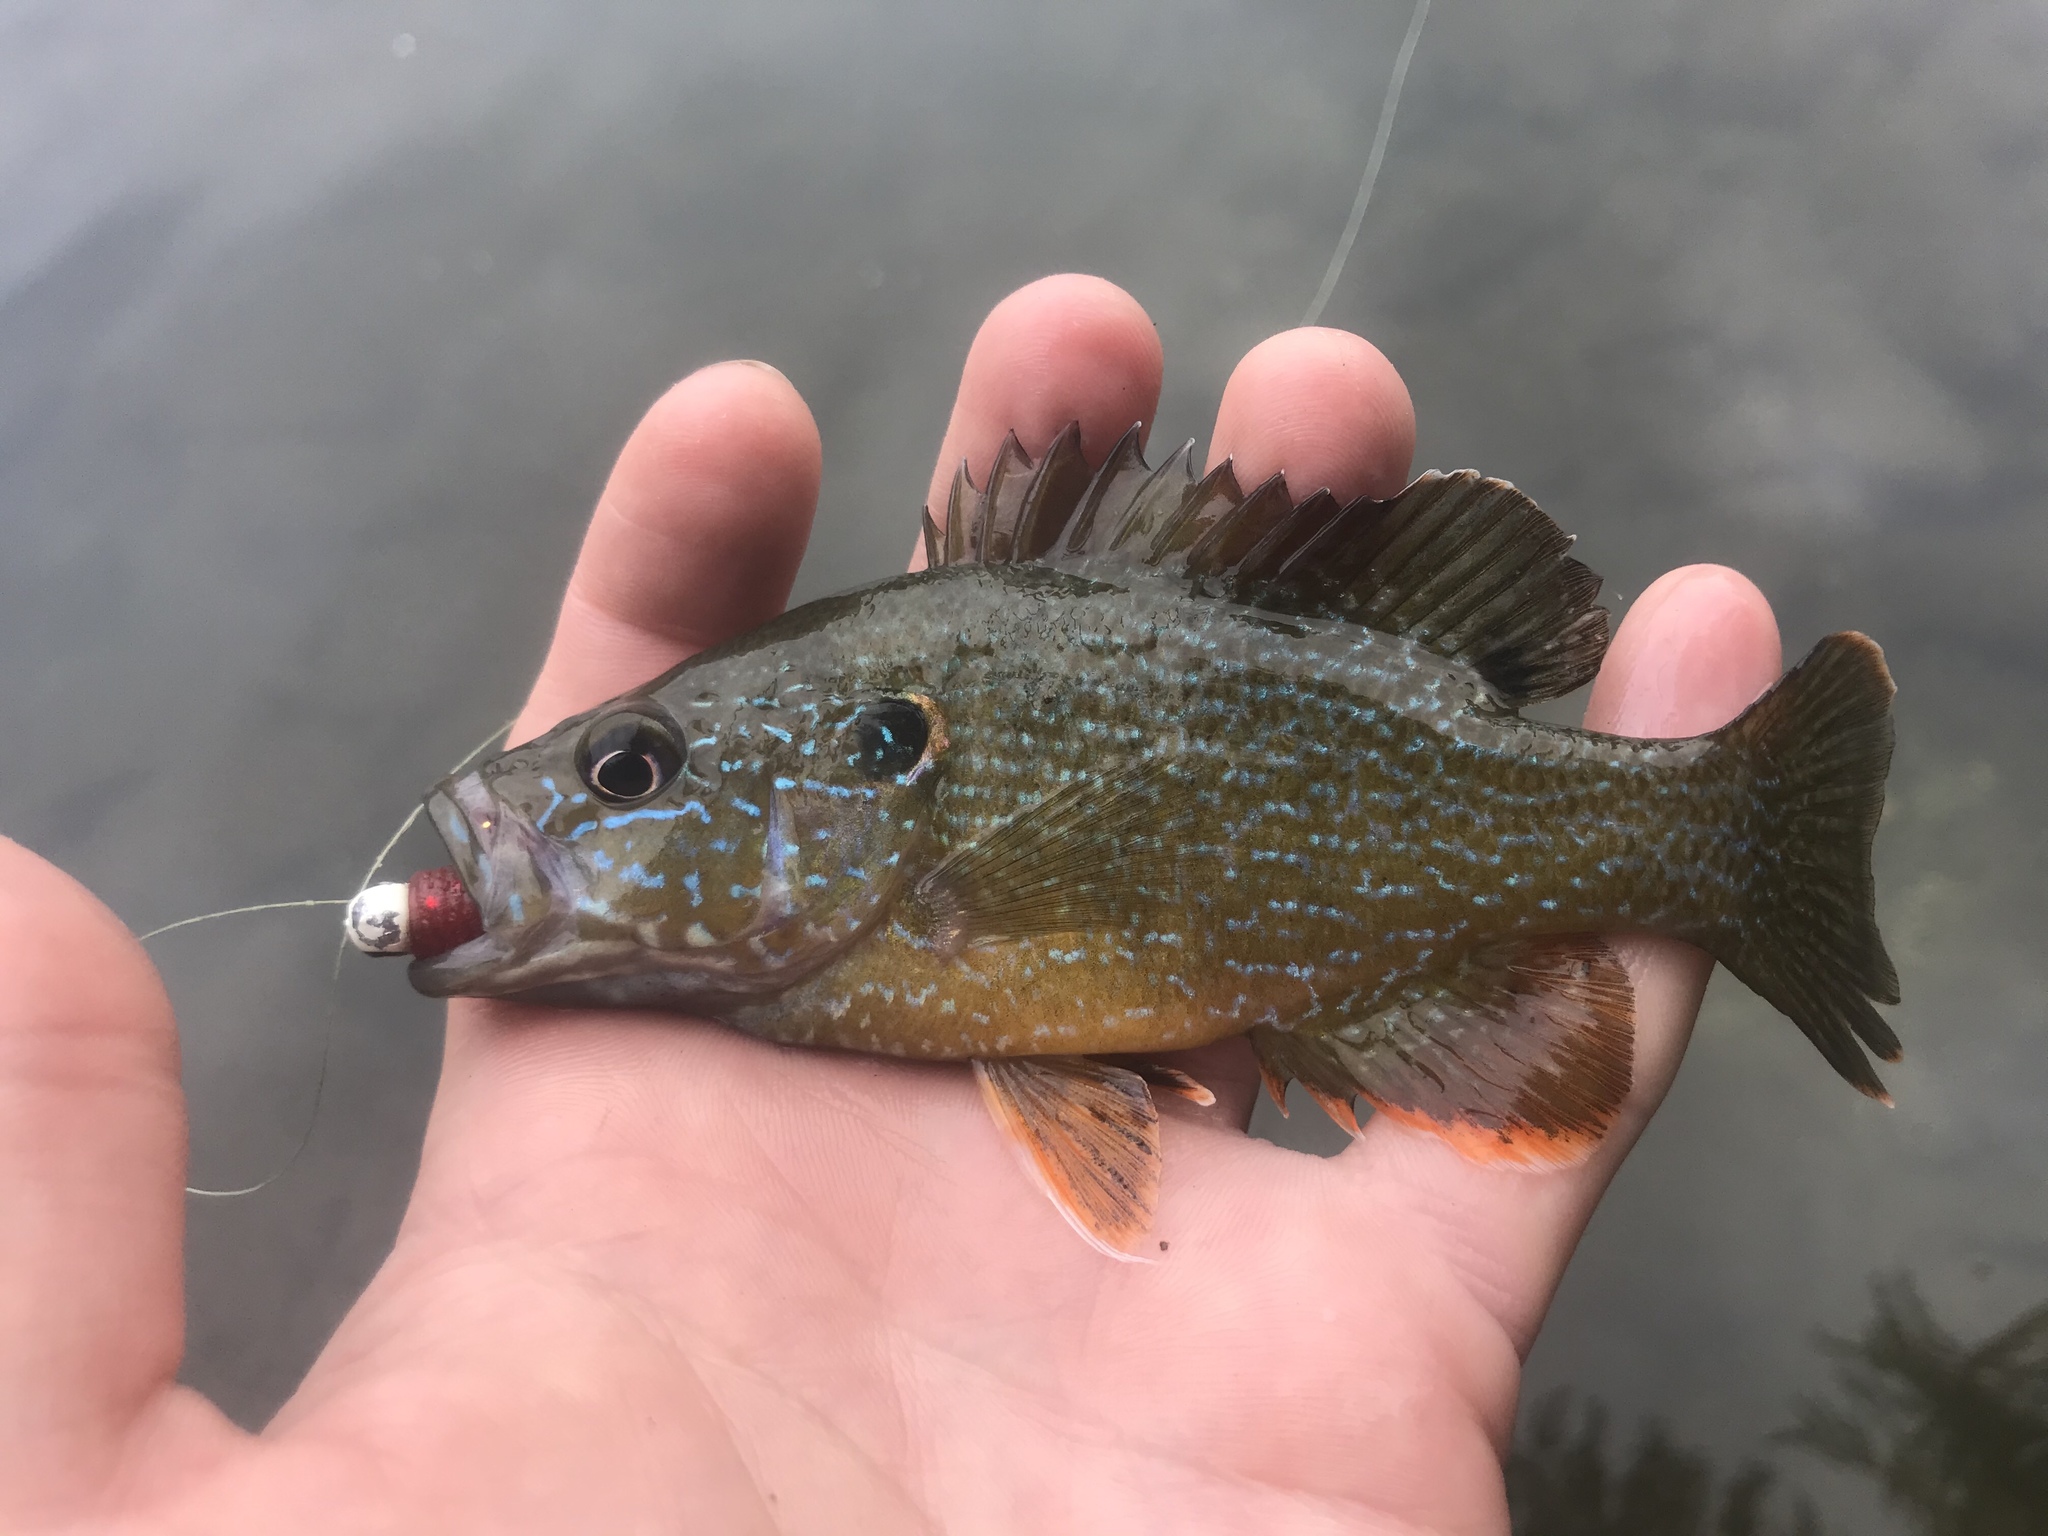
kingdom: Animalia
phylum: Chordata
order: Perciformes
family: Centrarchidae
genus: Lepomis
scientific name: Lepomis cyanellus
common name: Green sunfish
